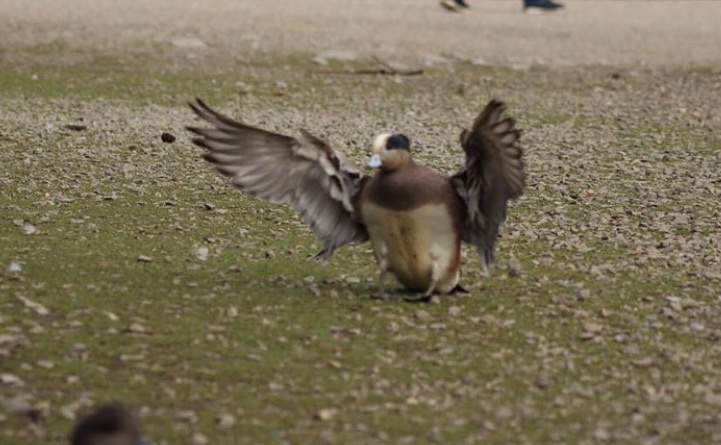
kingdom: Animalia
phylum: Chordata
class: Aves
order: Anseriformes
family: Anatidae
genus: Mareca
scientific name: Mareca americana
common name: American wigeon
